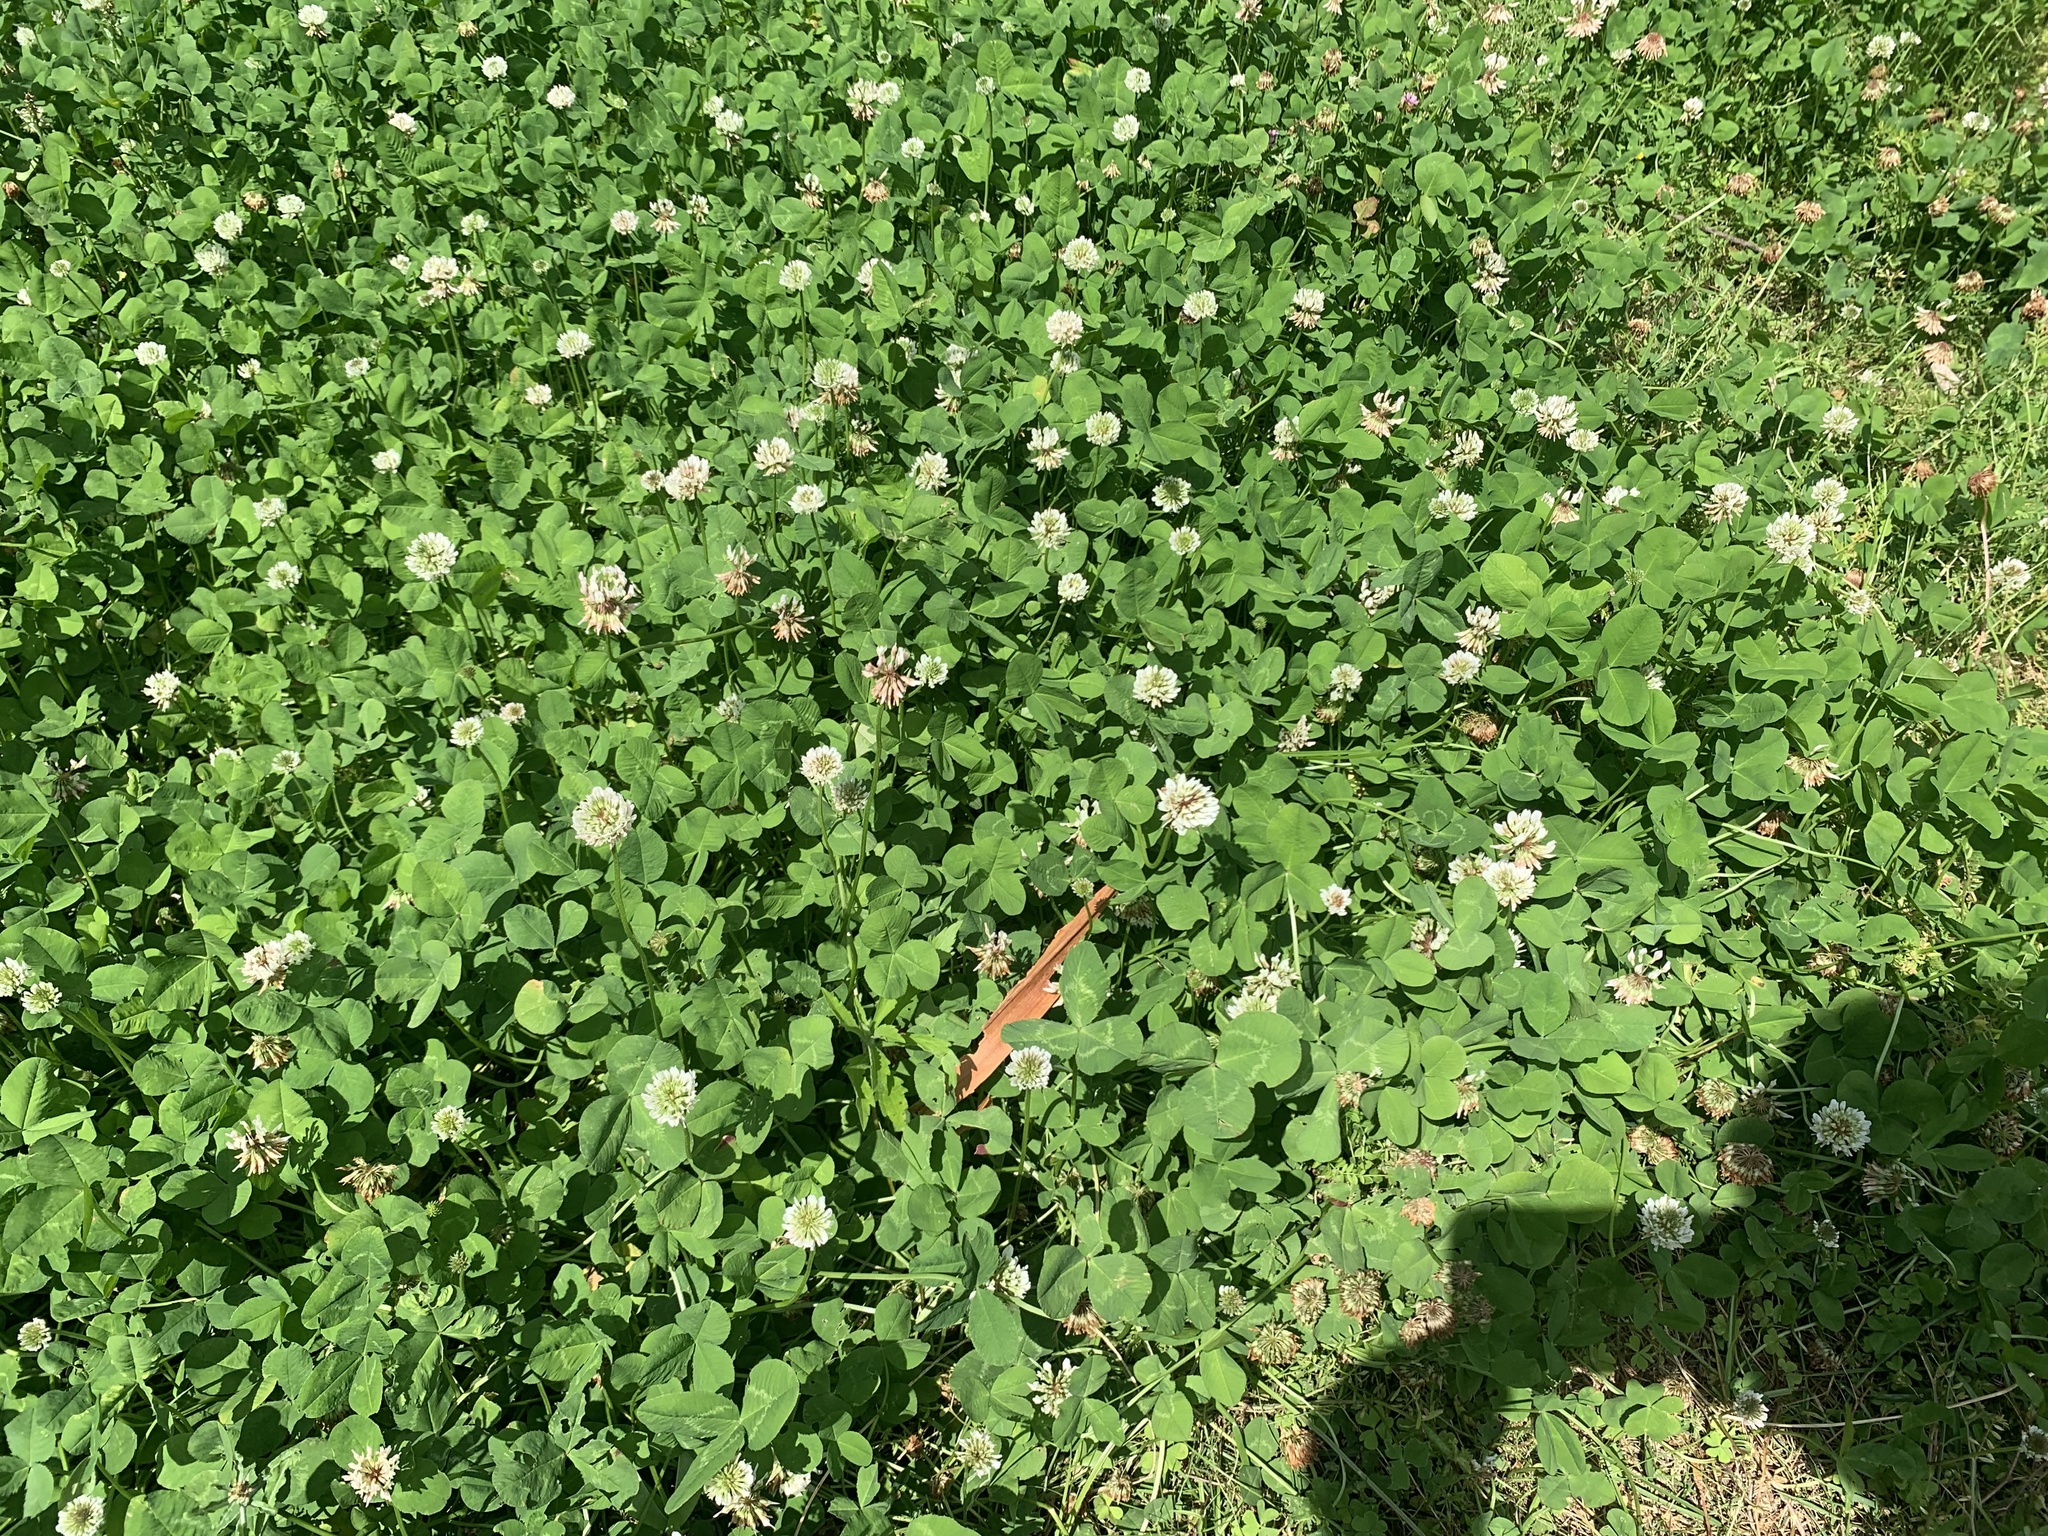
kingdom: Plantae
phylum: Tracheophyta
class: Magnoliopsida
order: Fabales
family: Fabaceae
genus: Trifolium
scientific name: Trifolium repens
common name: White clover
